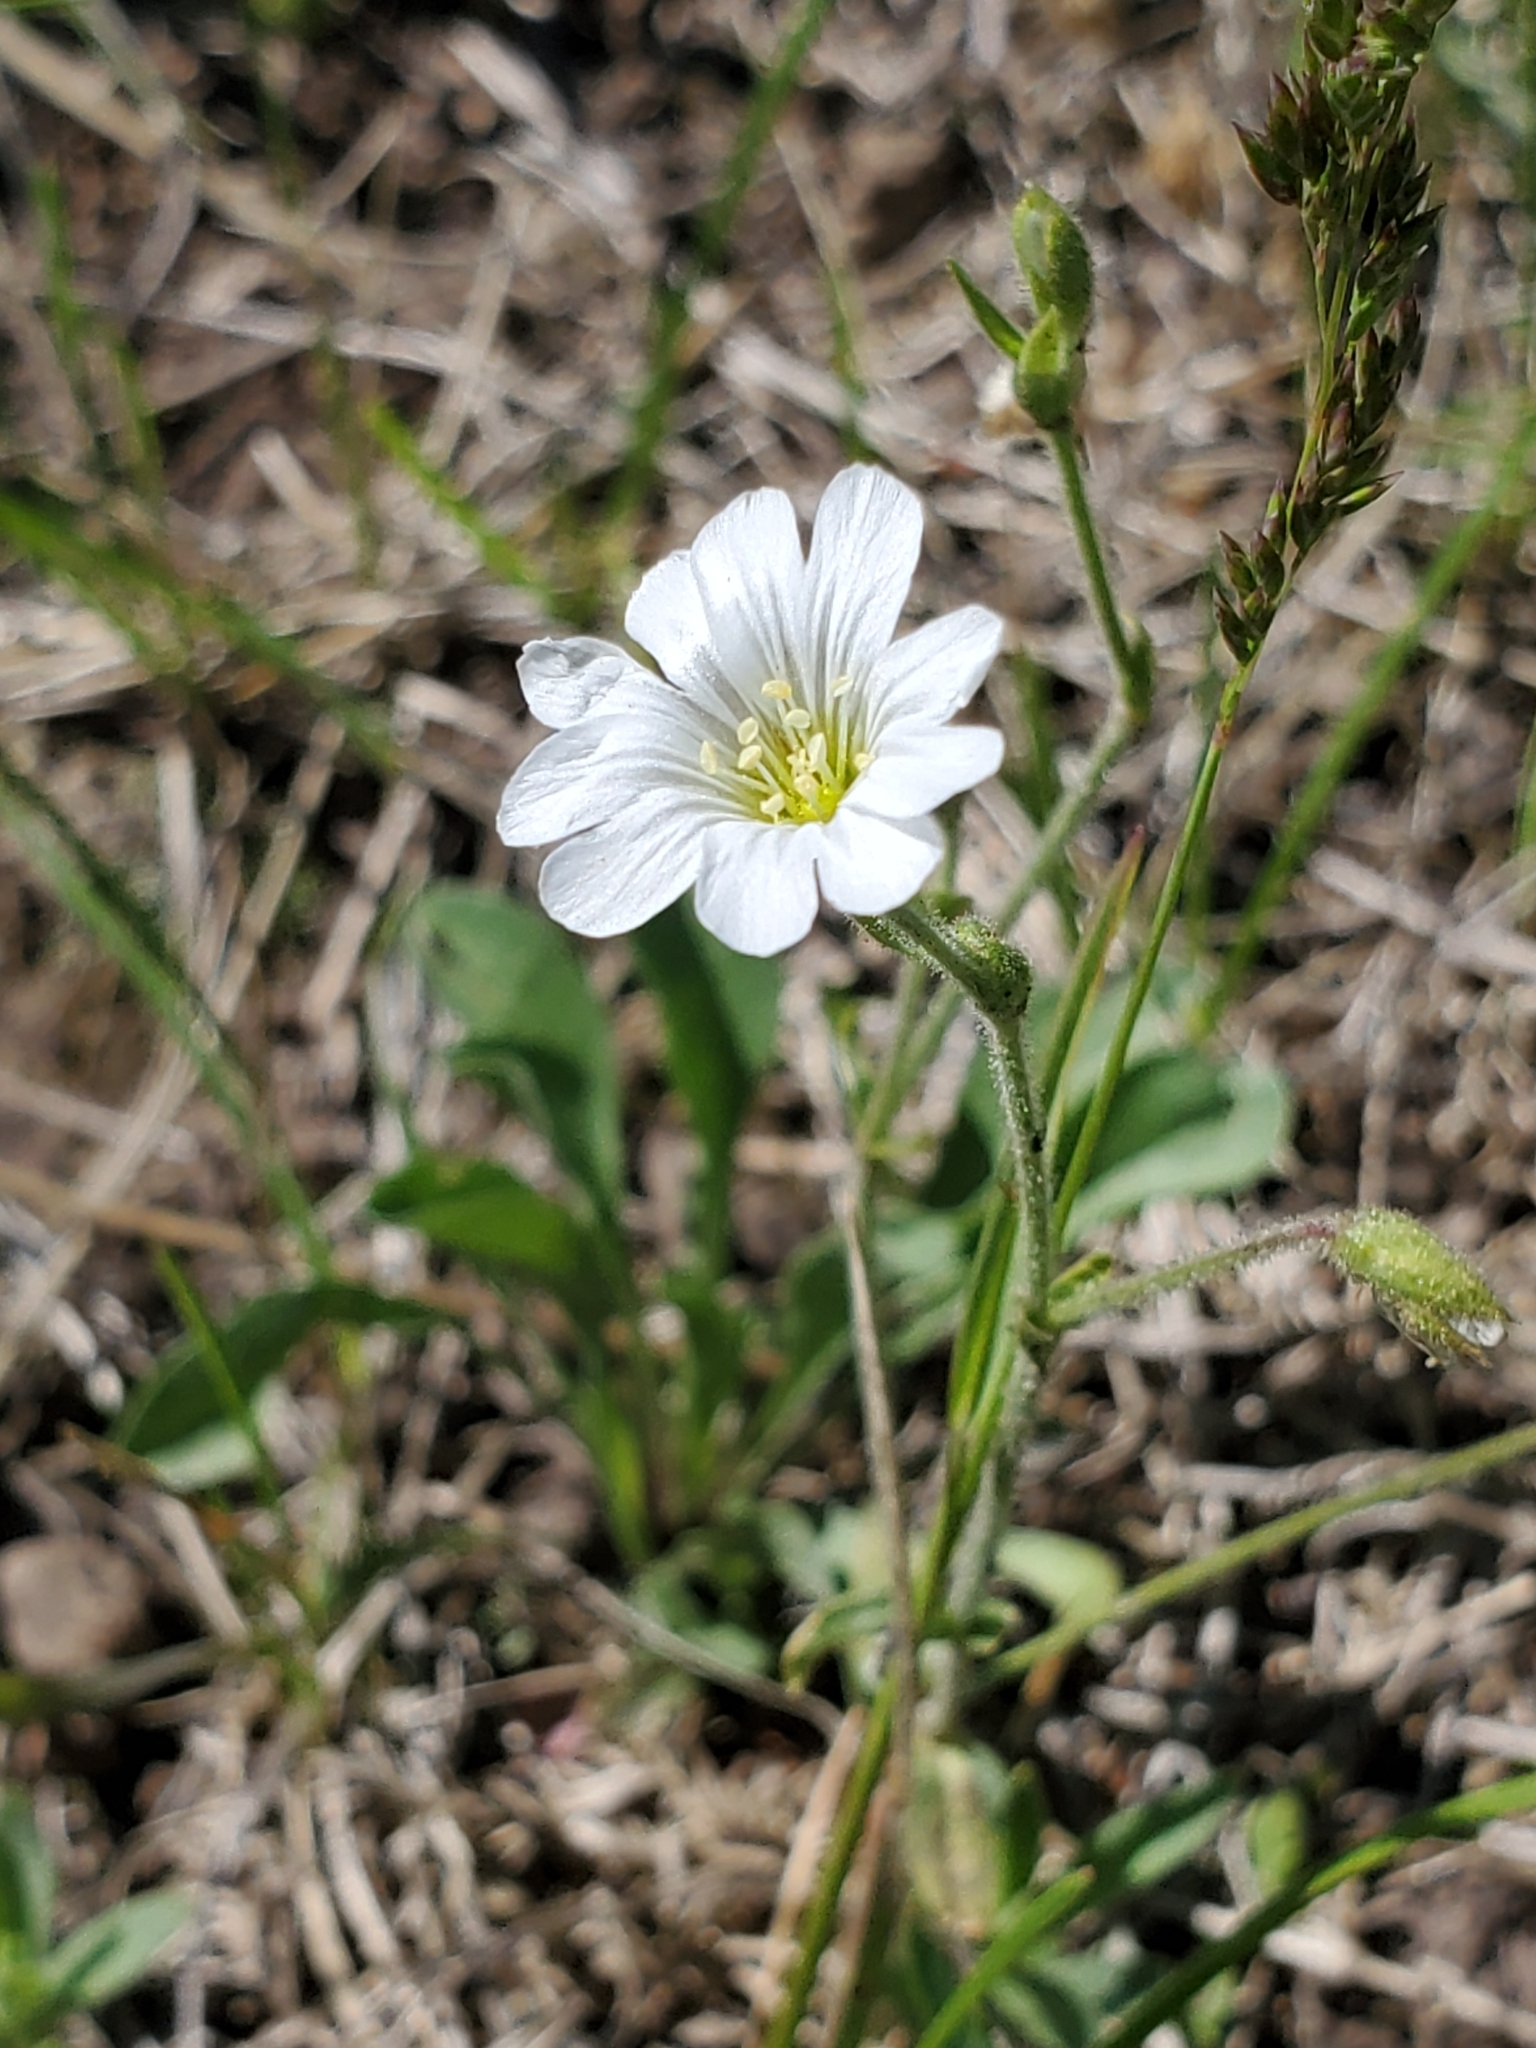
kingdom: Plantae
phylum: Tracheophyta
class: Magnoliopsida
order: Caryophyllales
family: Caryophyllaceae
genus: Cerastium
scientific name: Cerastium arvense
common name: Field mouse-ear
